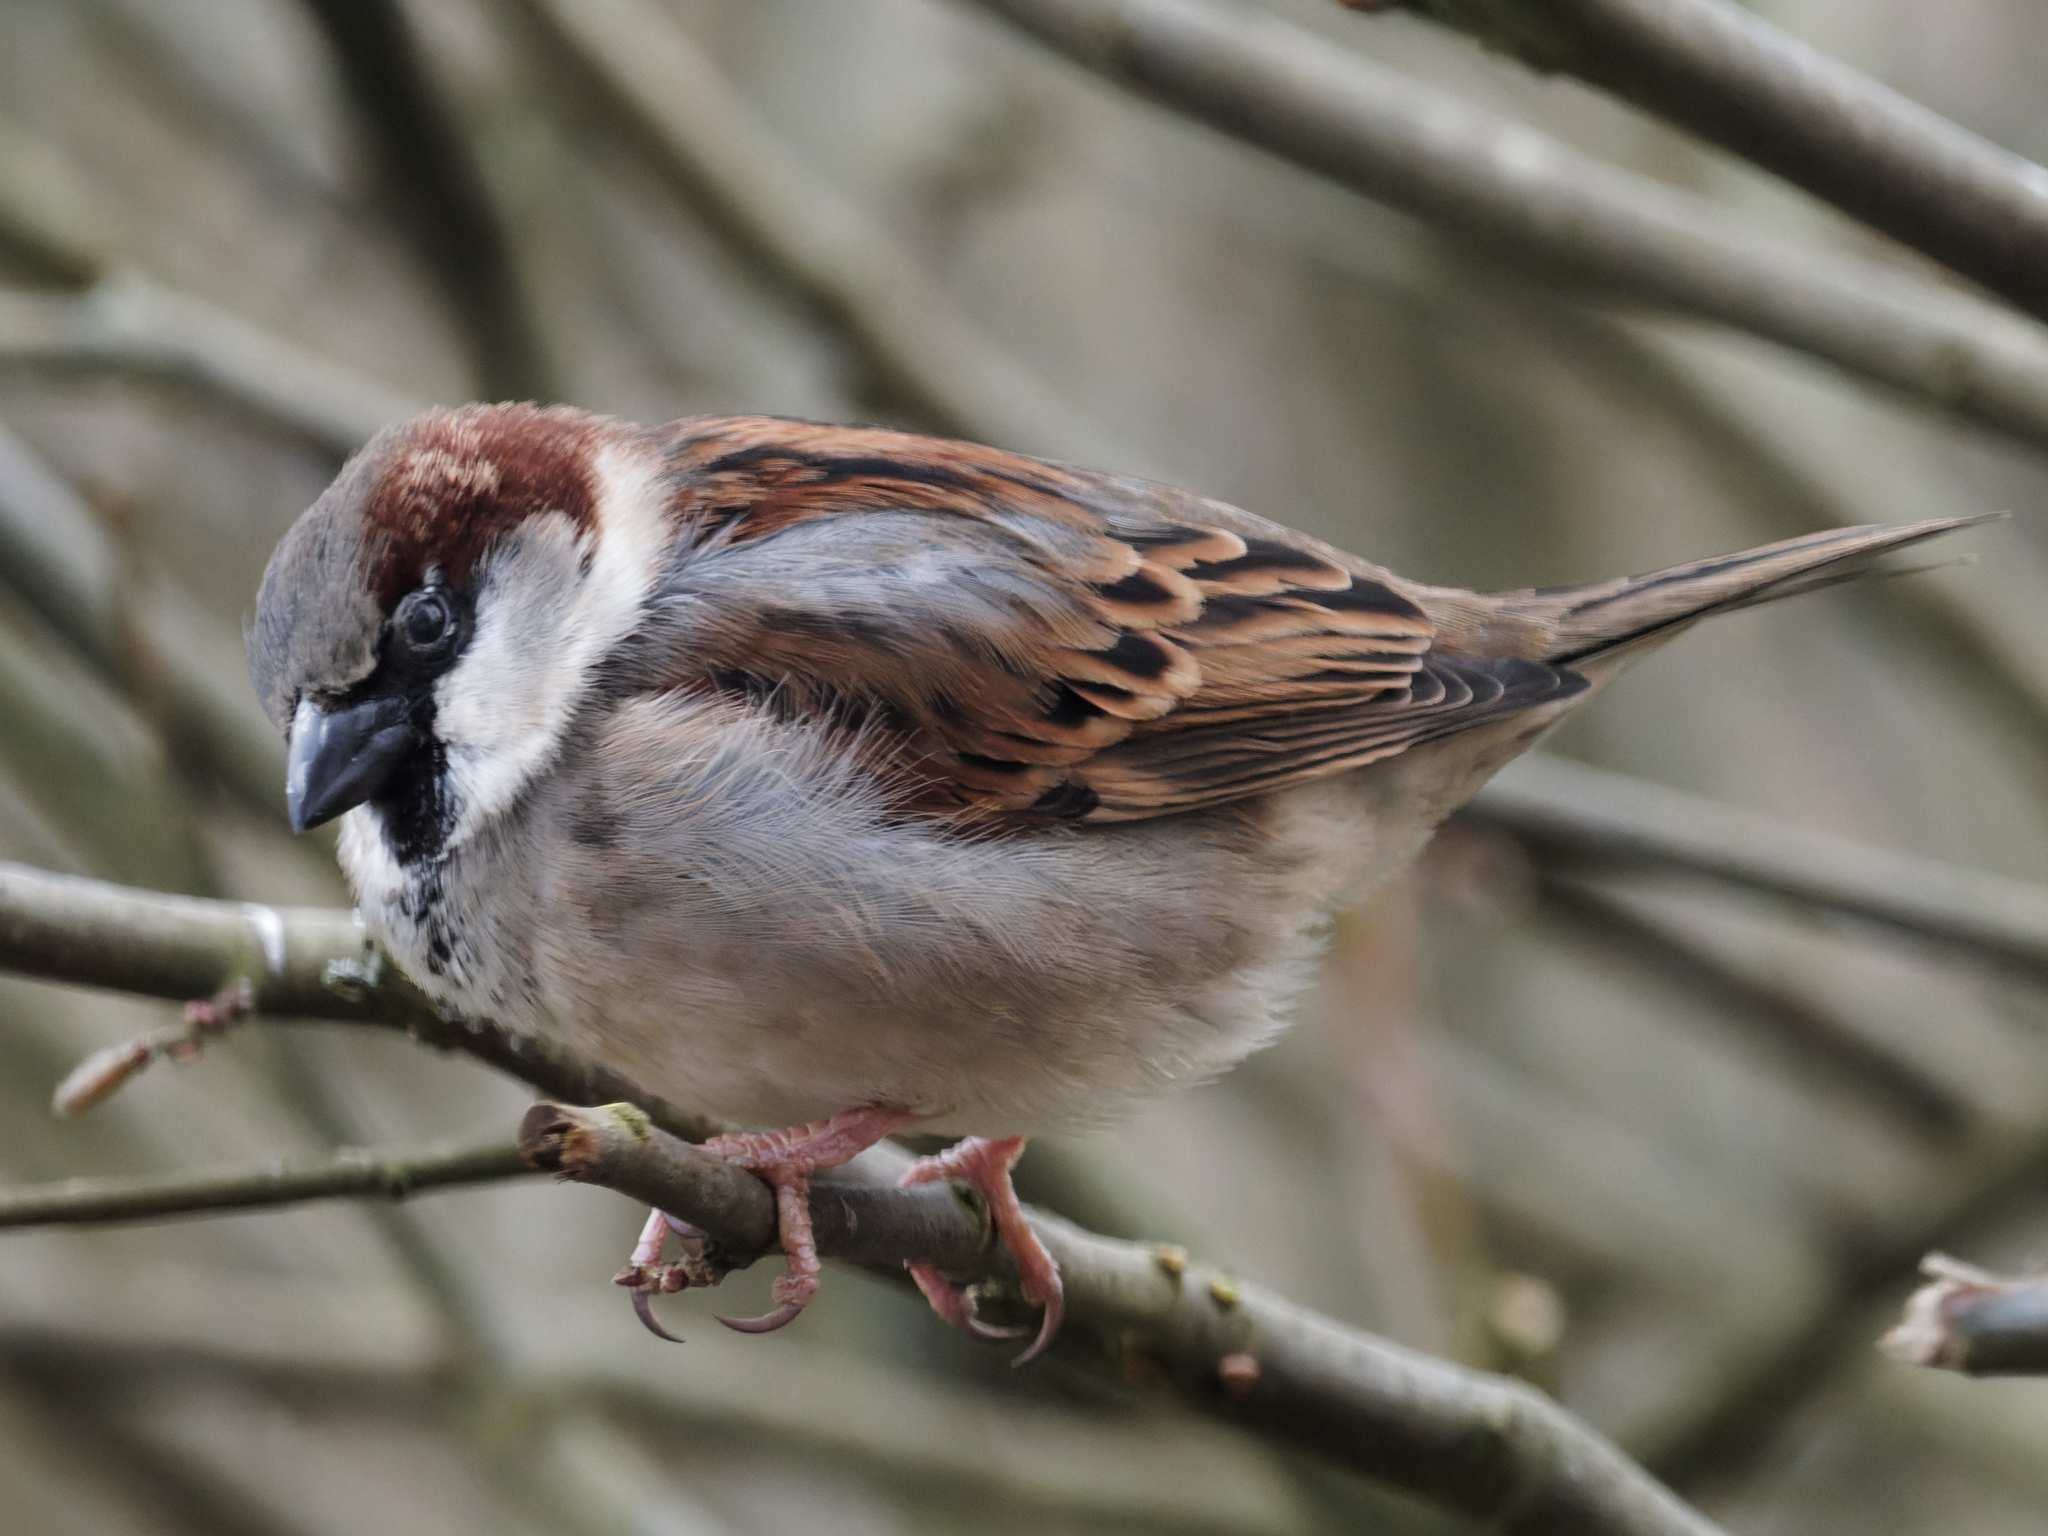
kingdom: Animalia
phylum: Chordata
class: Aves
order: Passeriformes
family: Passeridae
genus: Passer
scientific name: Passer domesticus
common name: House sparrow
